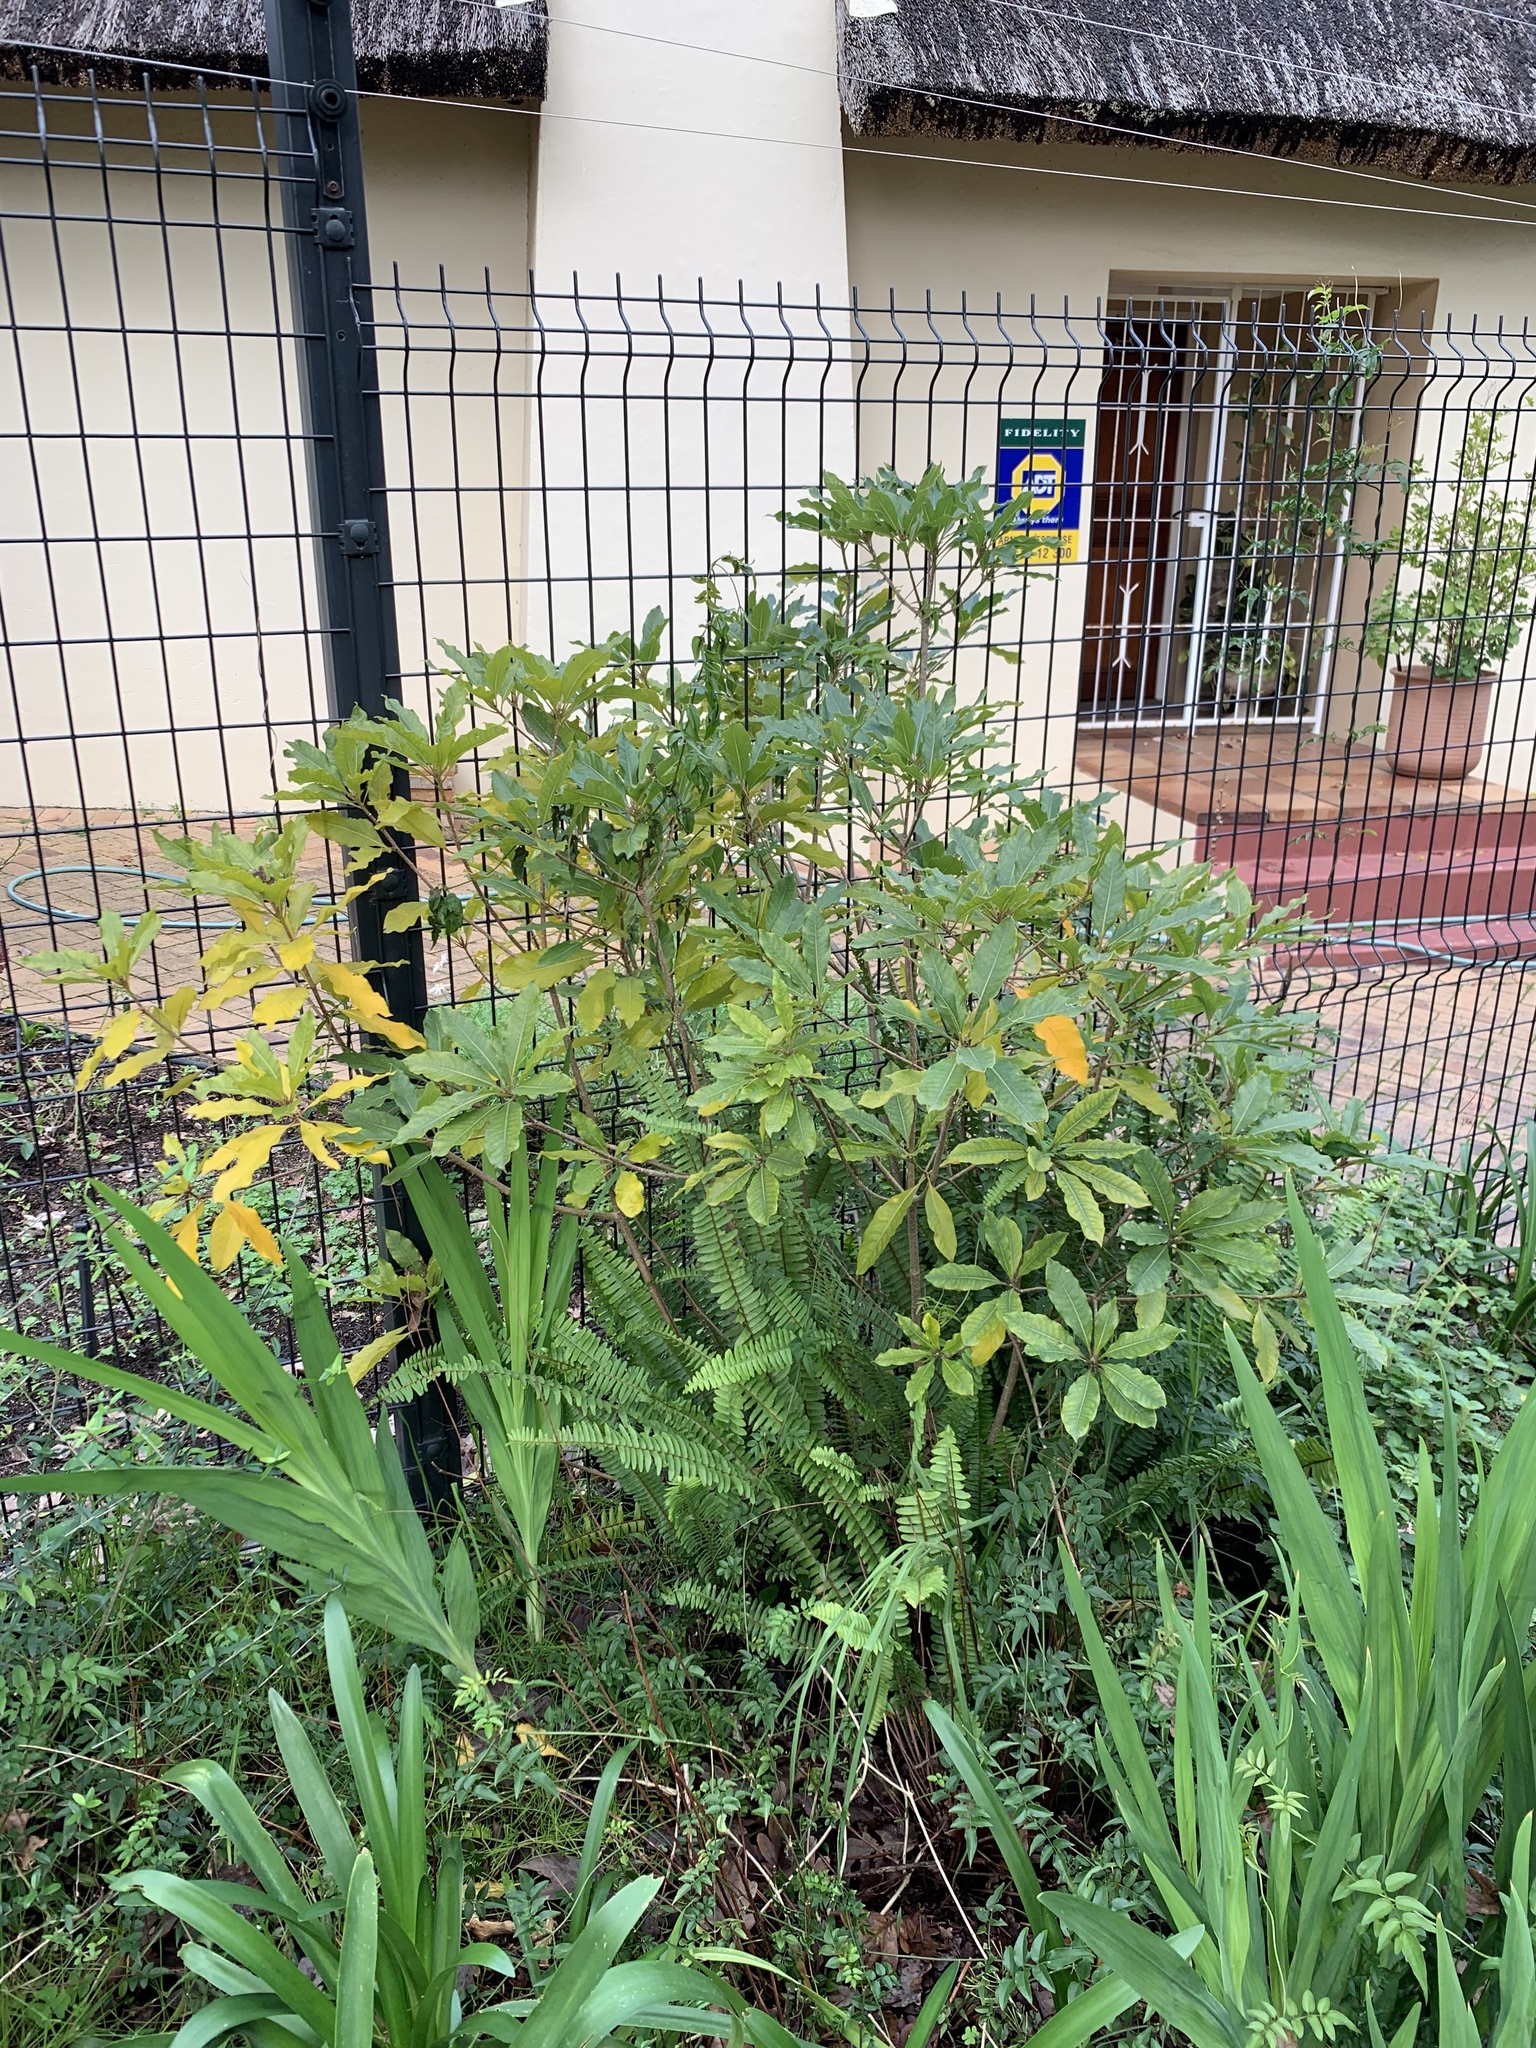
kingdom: Plantae
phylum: Tracheophyta
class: Magnoliopsida
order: Apiales
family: Pittosporaceae
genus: Pittosporum
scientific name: Pittosporum undulatum
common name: Australian cheesewood
